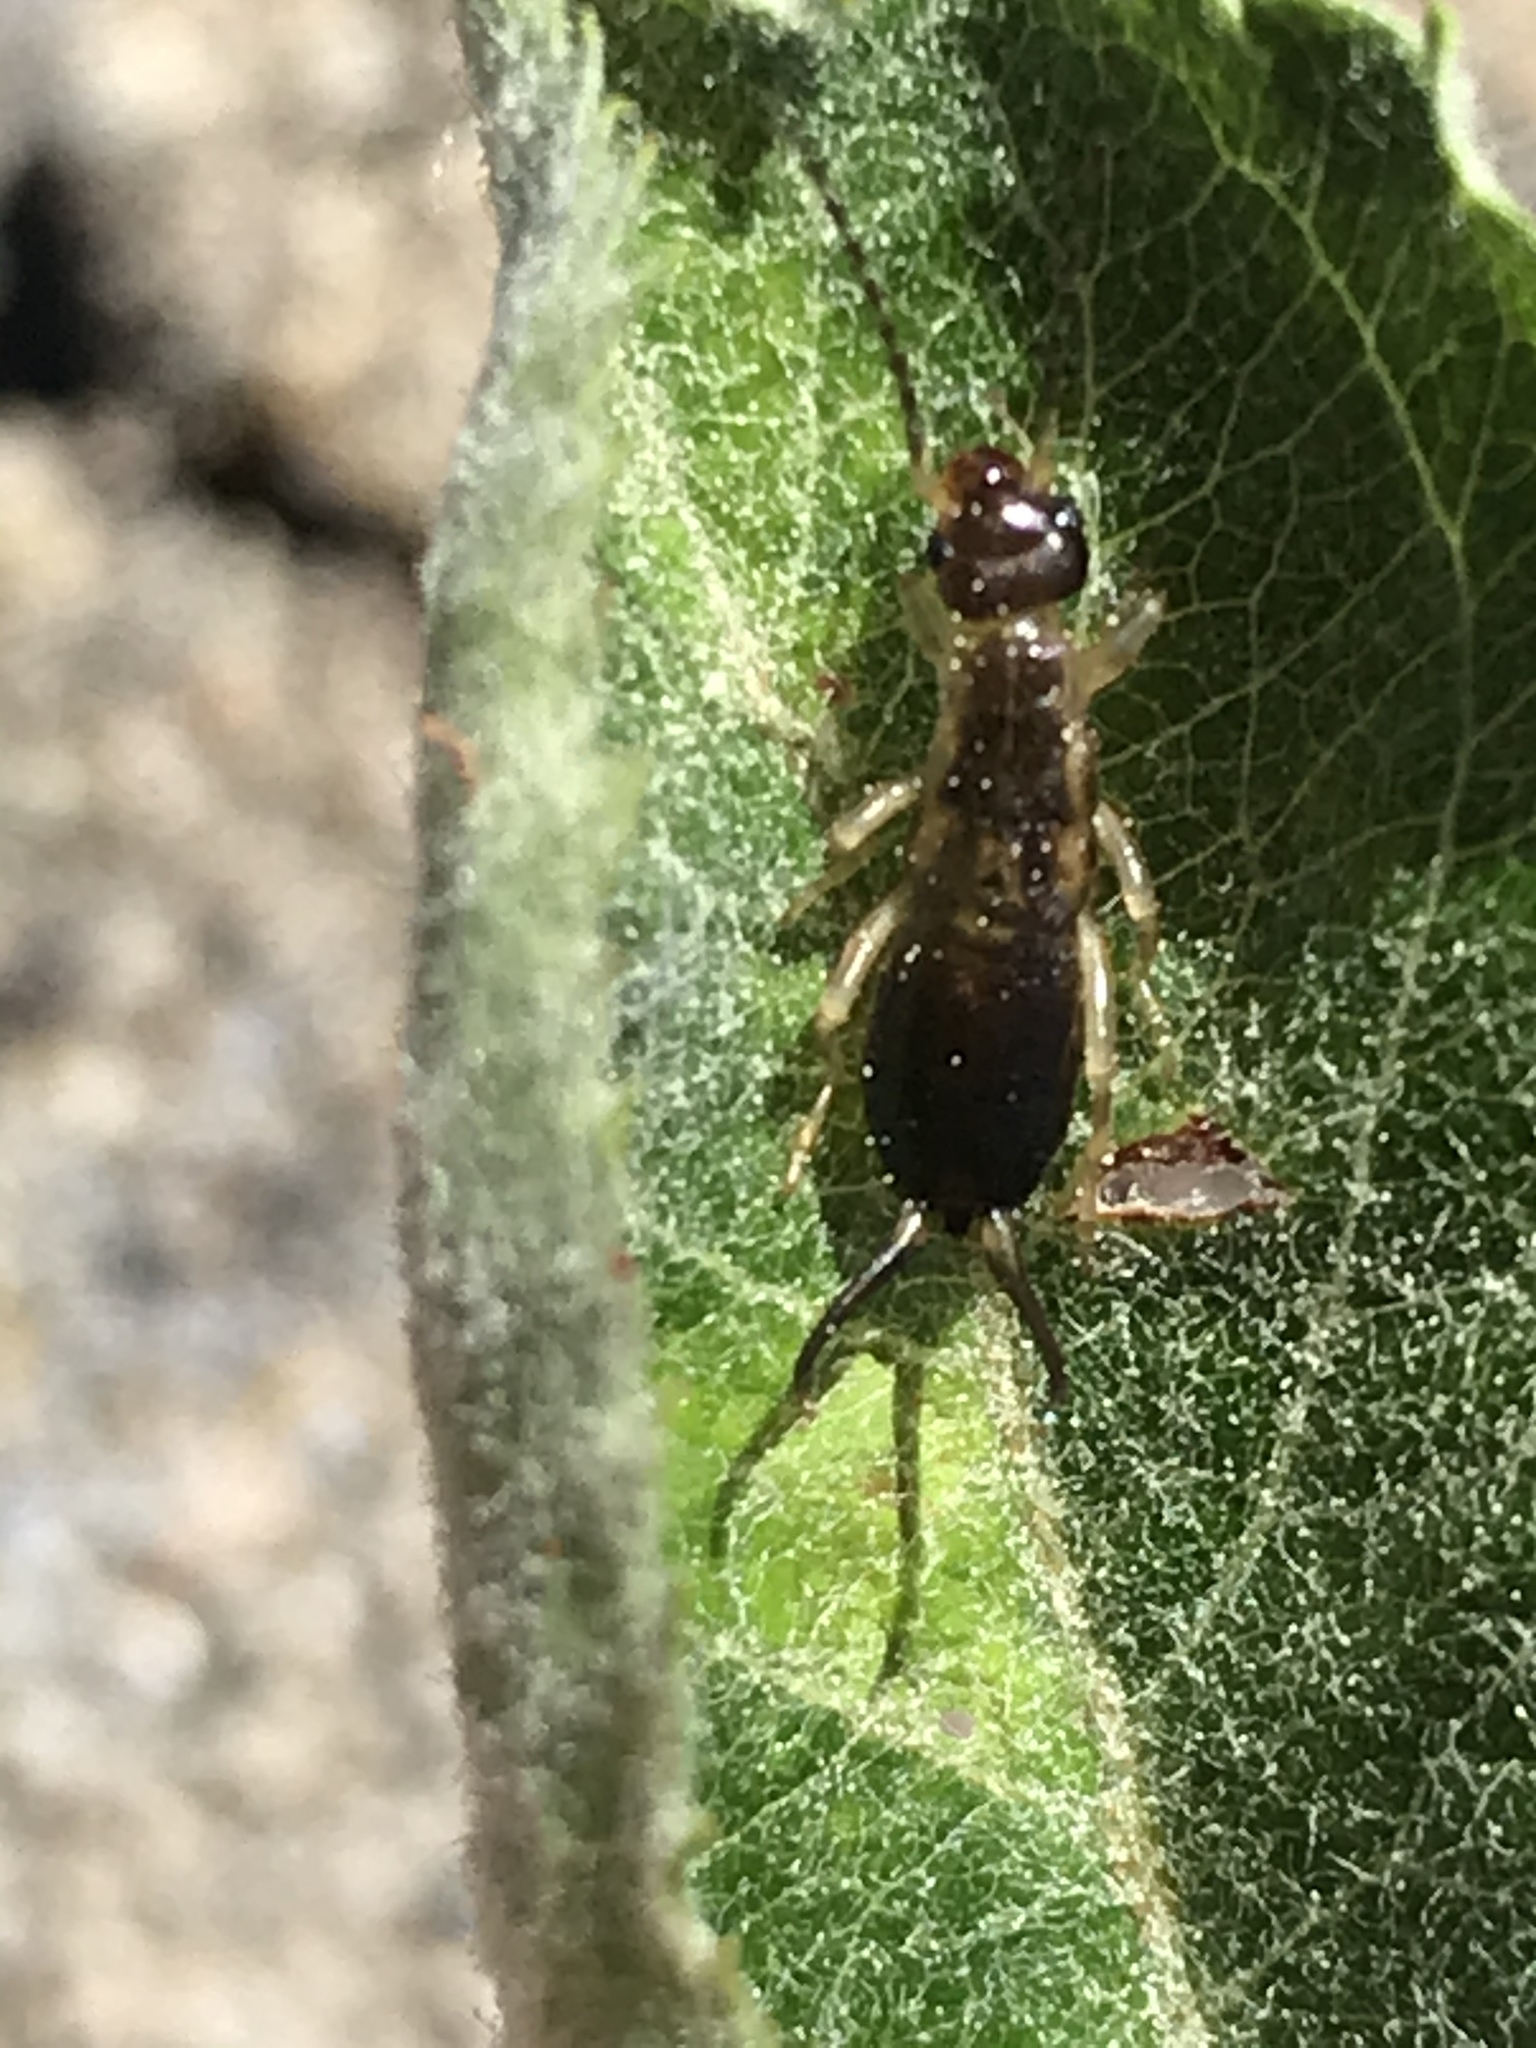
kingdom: Animalia
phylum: Arthropoda
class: Insecta
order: Dermaptera
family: Forficulidae
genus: Forficula
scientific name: Forficula
